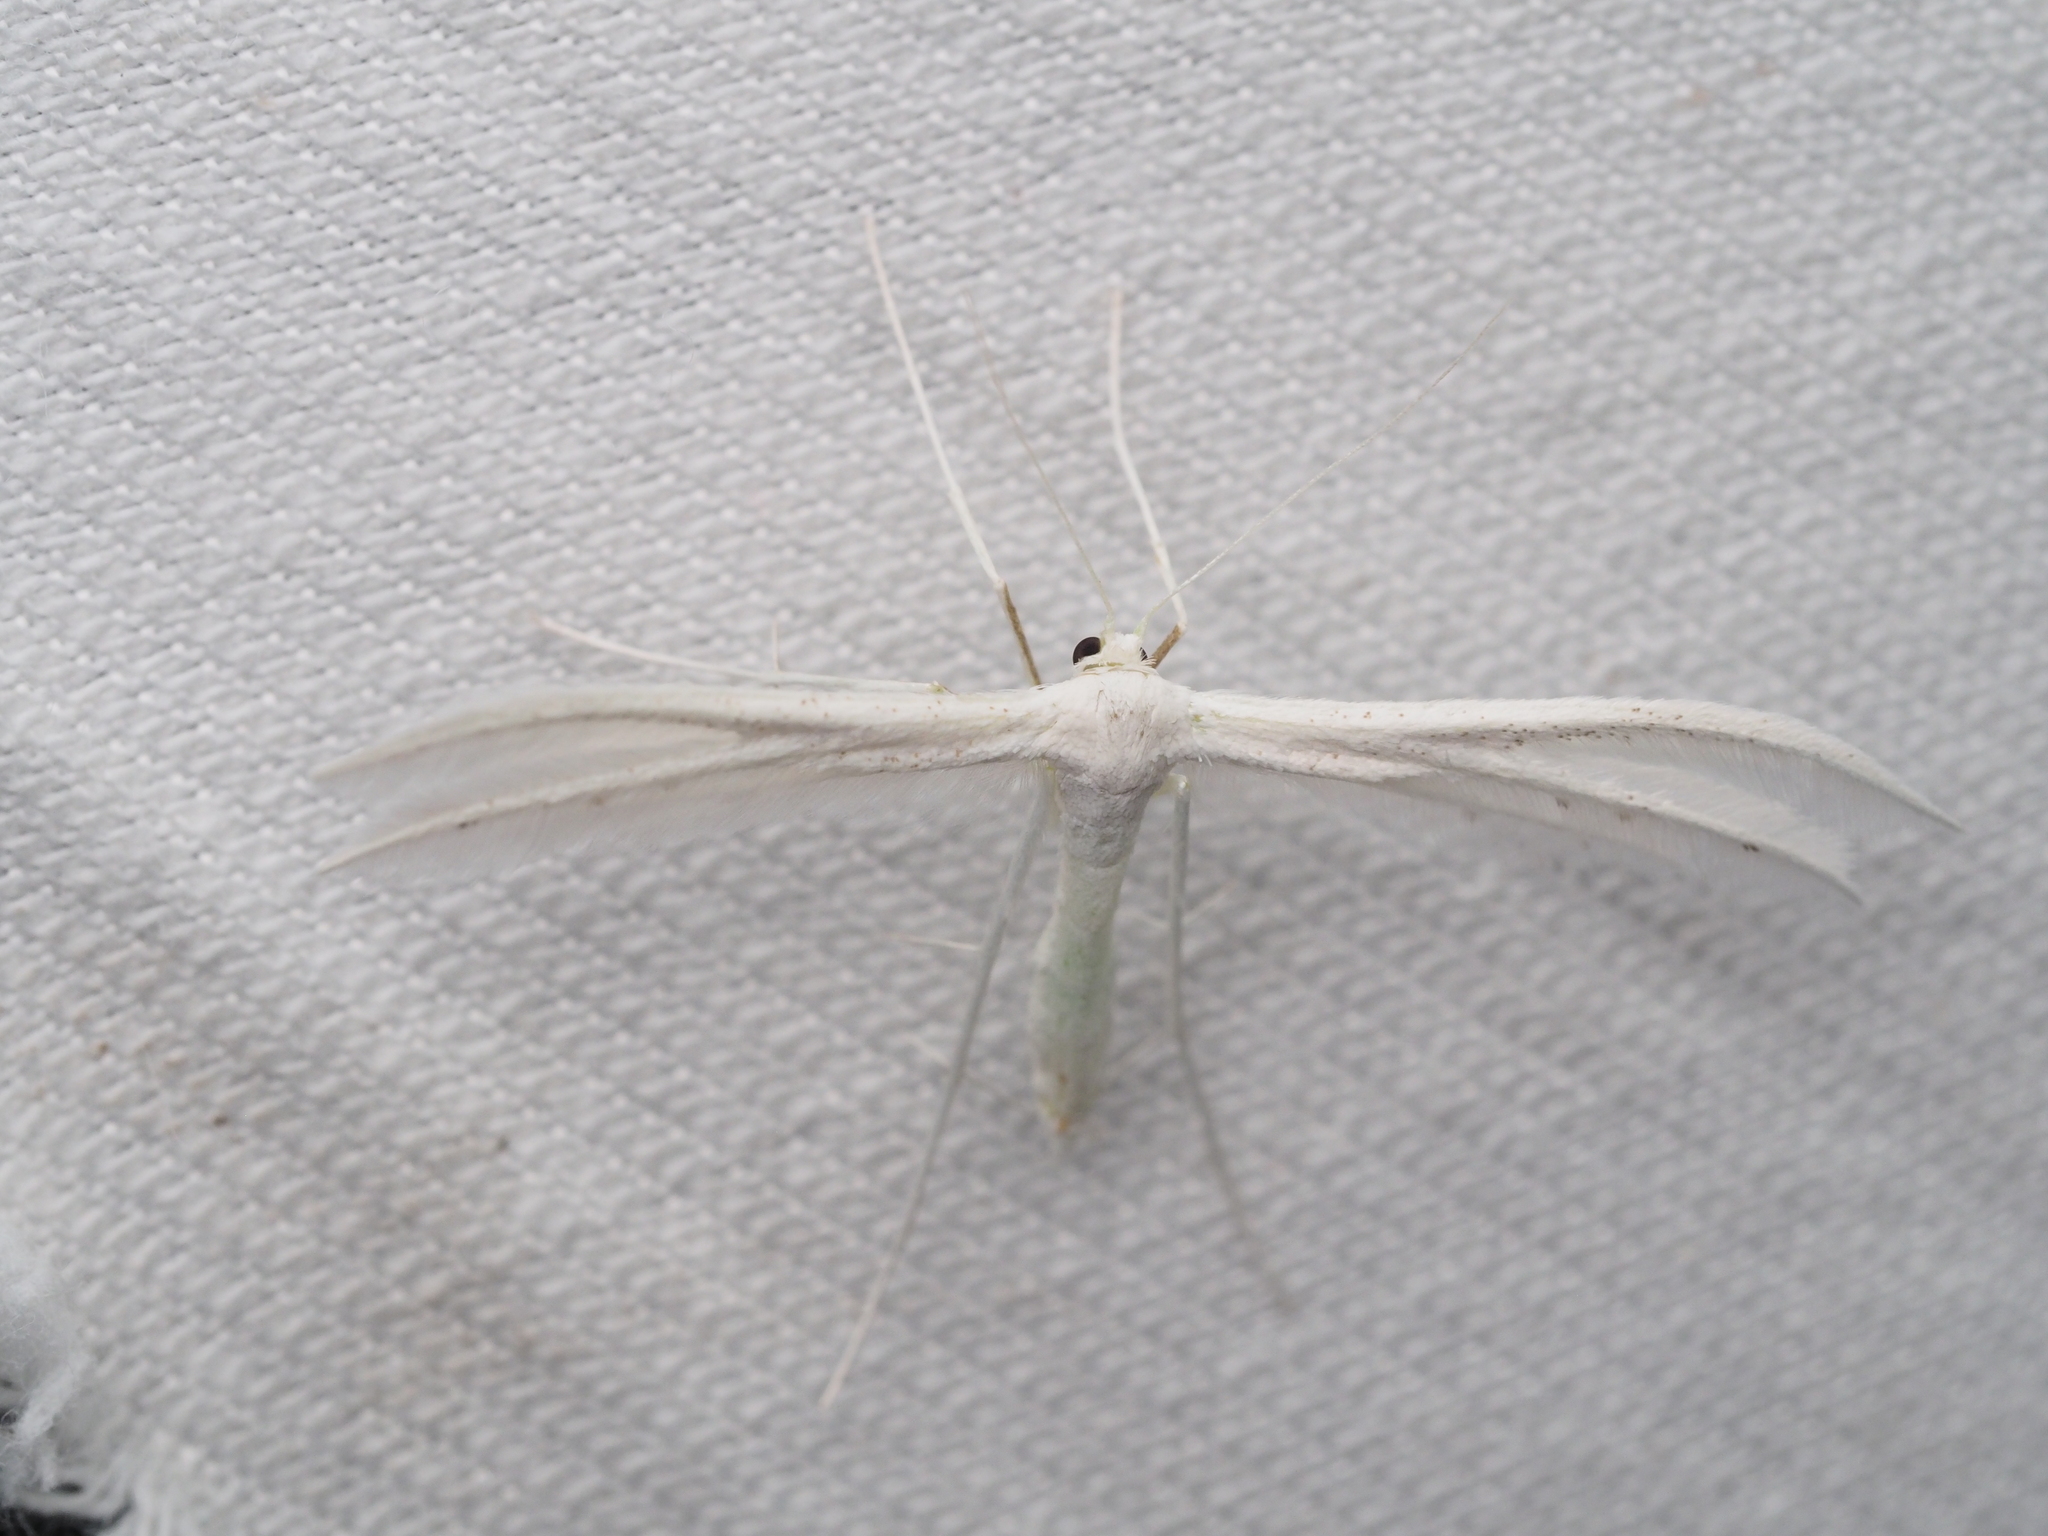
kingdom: Animalia
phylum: Arthropoda
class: Insecta
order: Lepidoptera
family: Pterophoridae
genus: Pterophorus
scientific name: Pterophorus pentadactyla
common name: White plume moth
